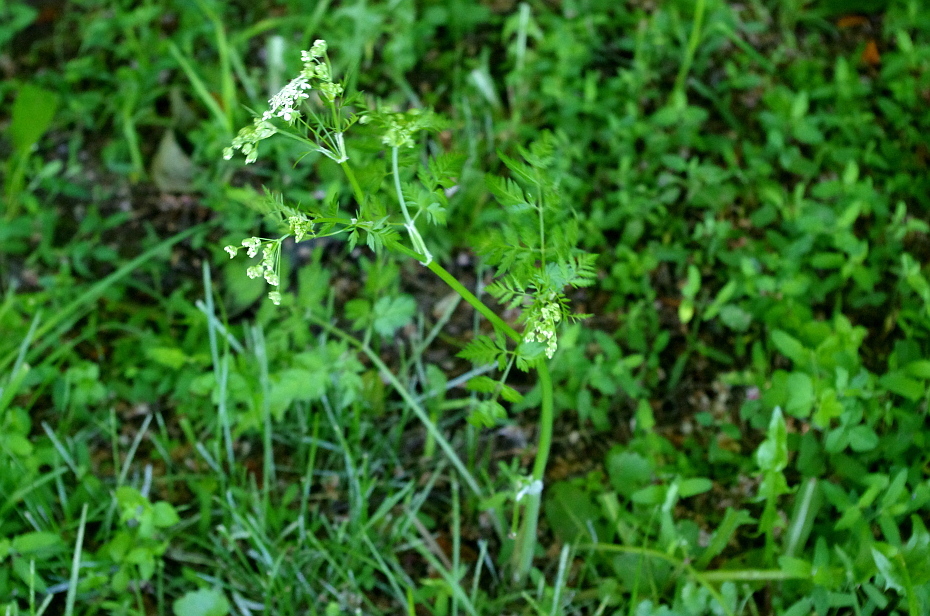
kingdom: Plantae
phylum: Tracheophyta
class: Magnoliopsida
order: Apiales
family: Apiaceae
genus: Anthriscus
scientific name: Anthriscus sylvestris
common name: Cow parsley
